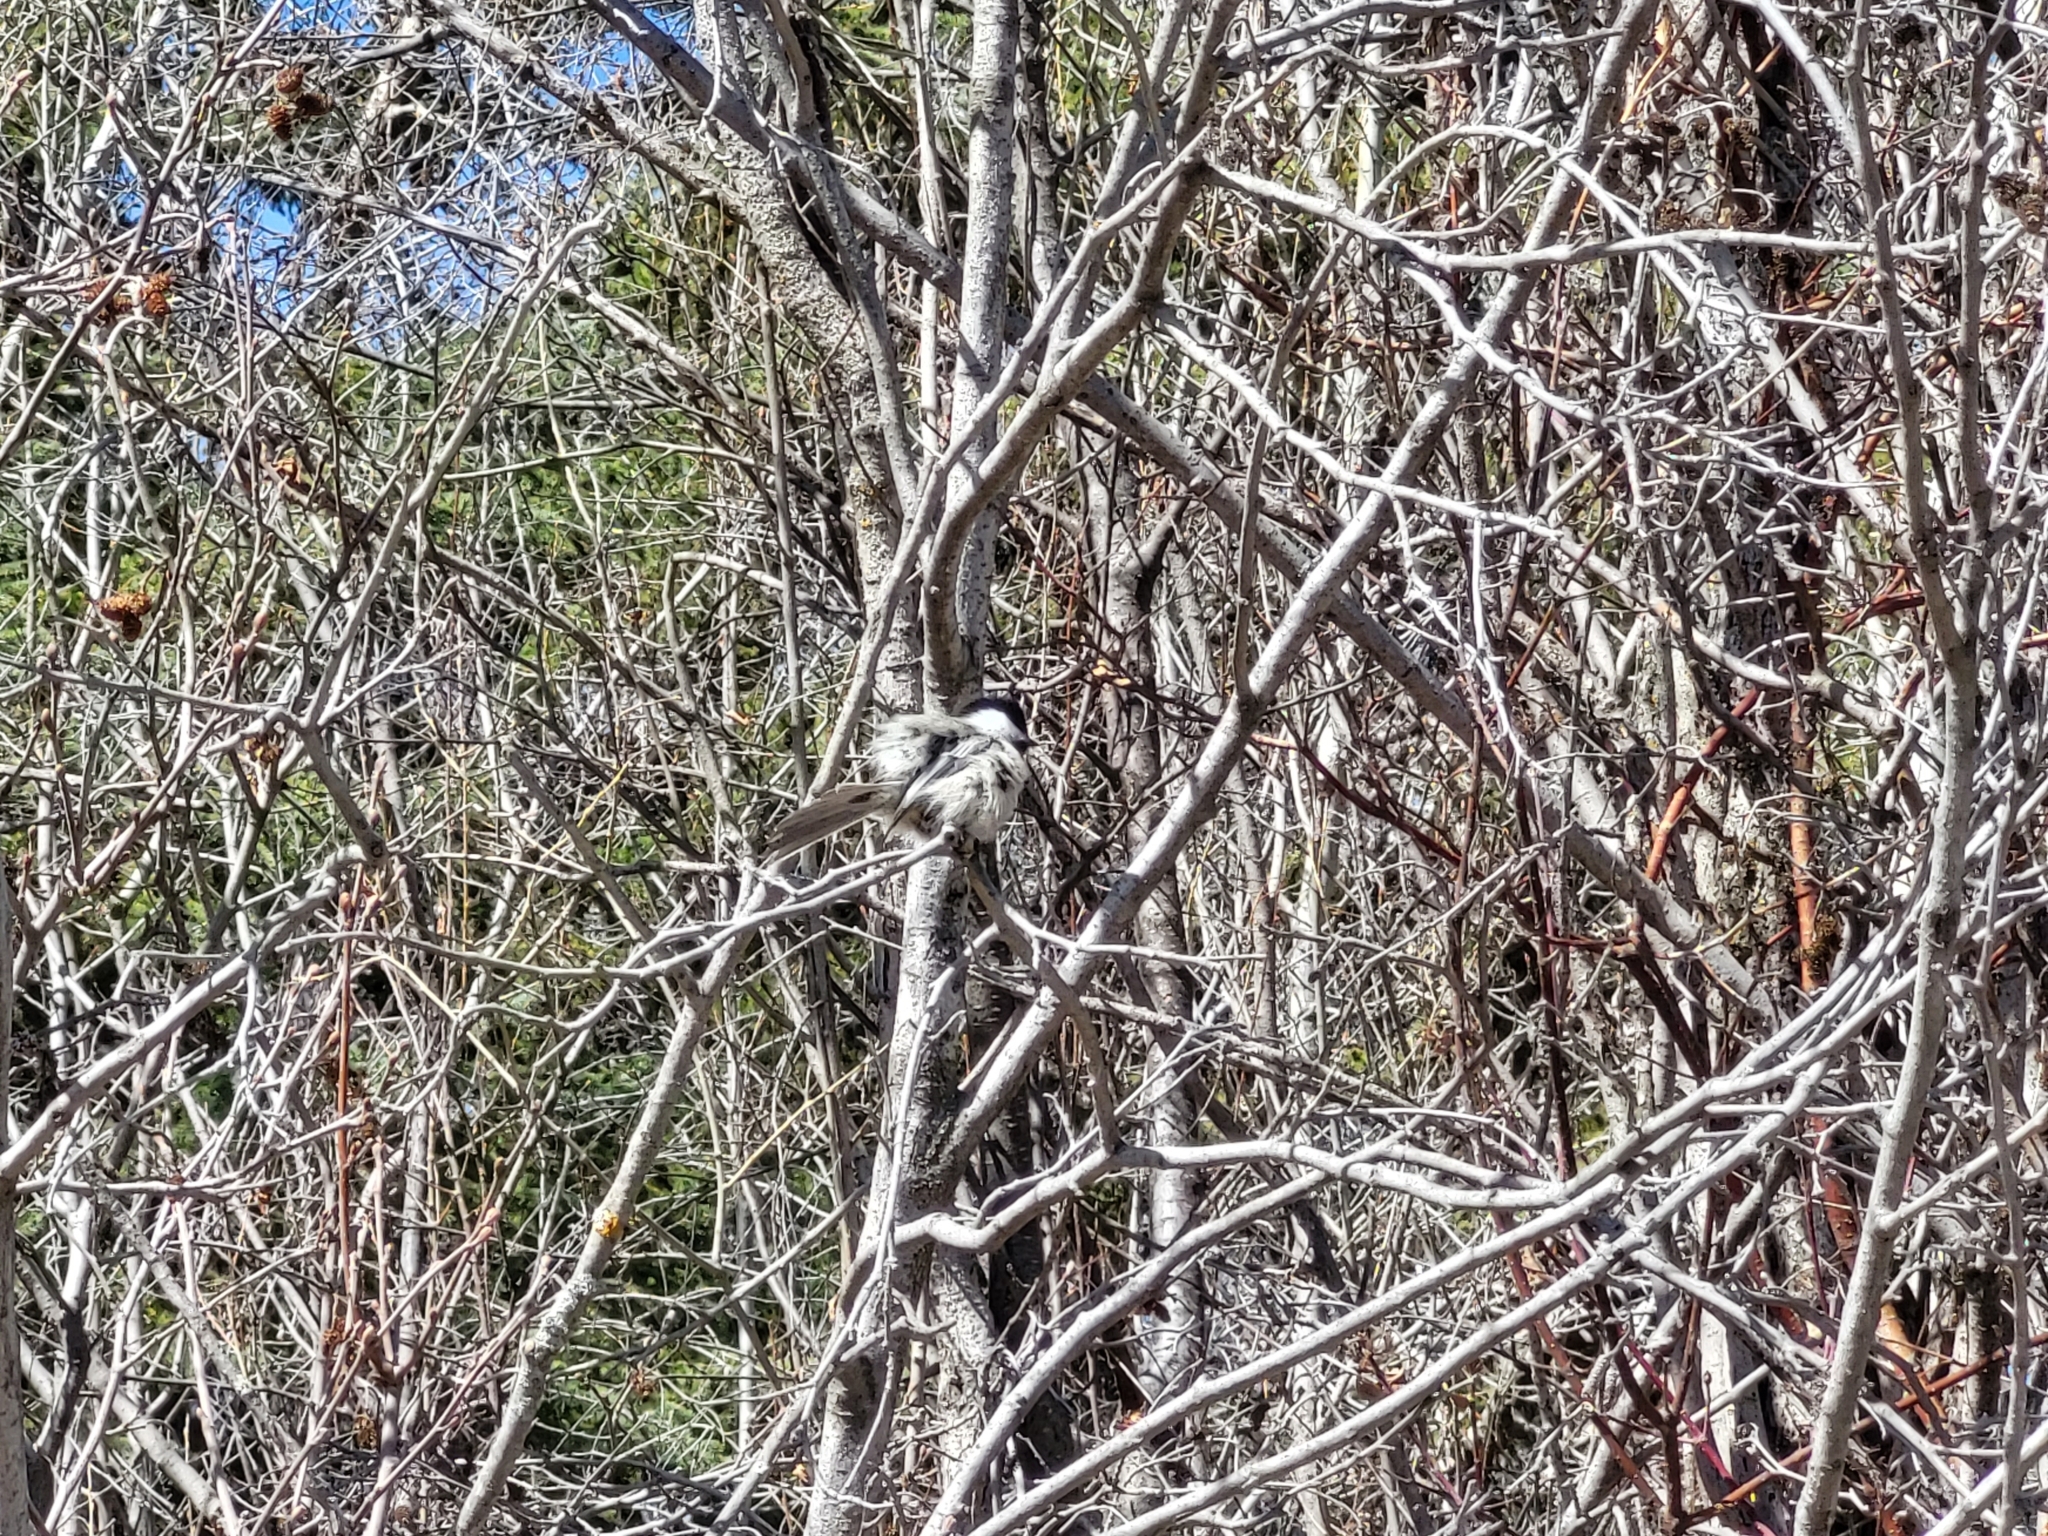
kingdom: Animalia
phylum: Chordata
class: Aves
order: Passeriformes
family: Paridae
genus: Poecile
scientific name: Poecile atricapillus
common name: Black-capped chickadee
